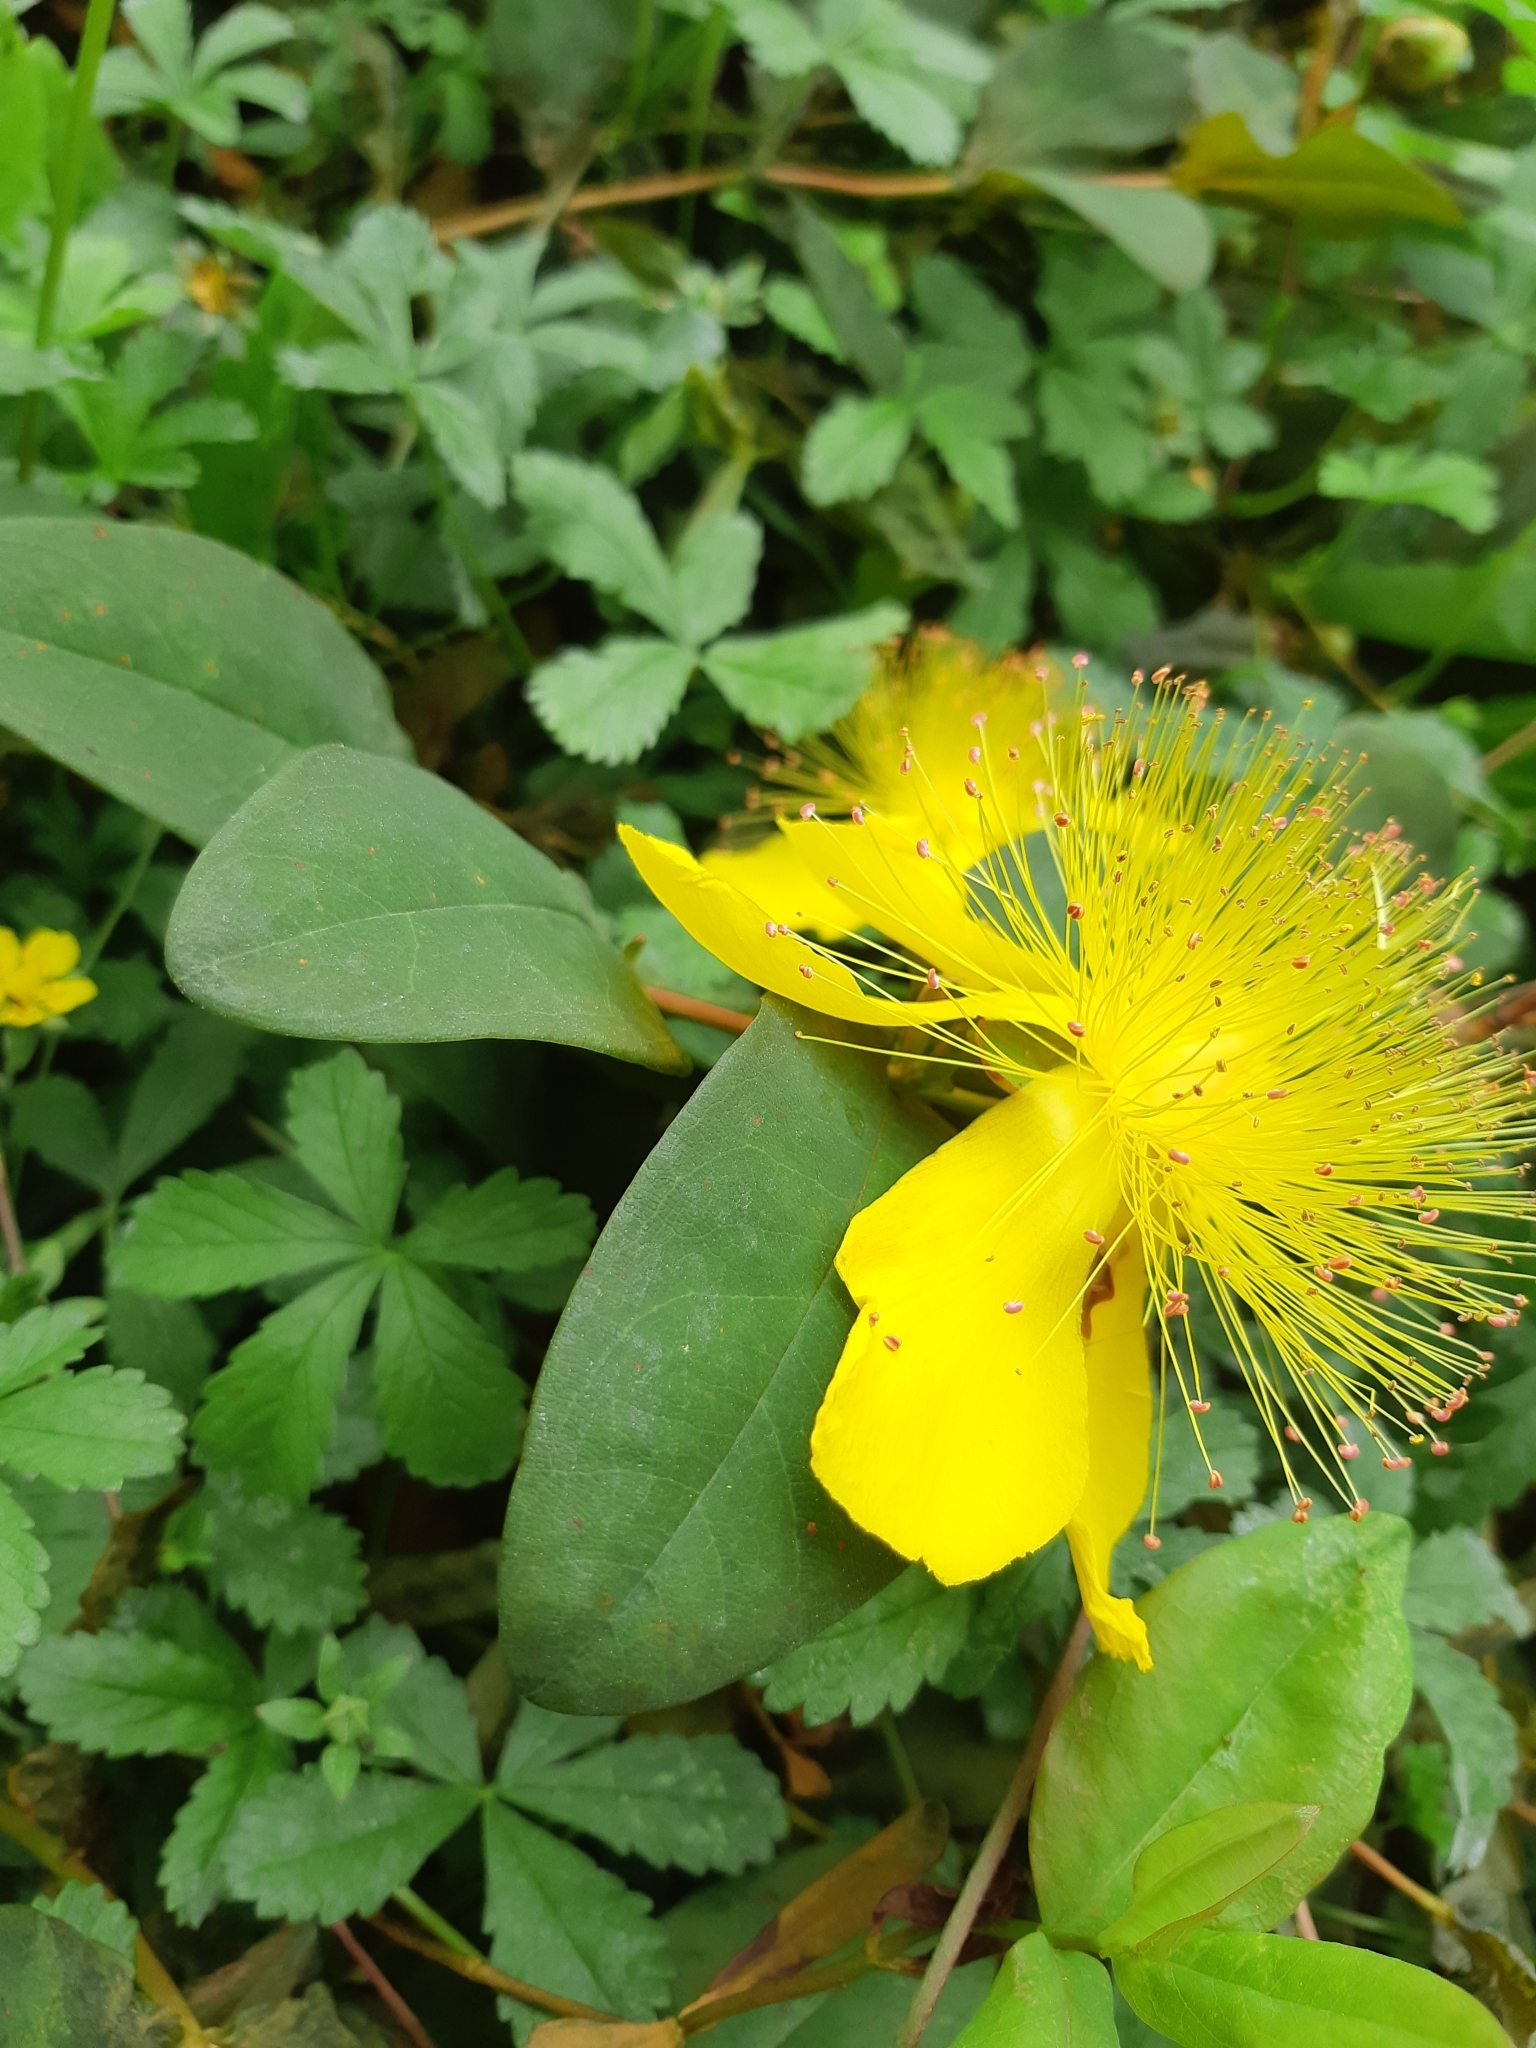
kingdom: Plantae
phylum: Tracheophyta
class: Magnoliopsida
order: Malpighiales
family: Hypericaceae
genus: Hypericum
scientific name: Hypericum calycinum
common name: Rose-of-sharon
